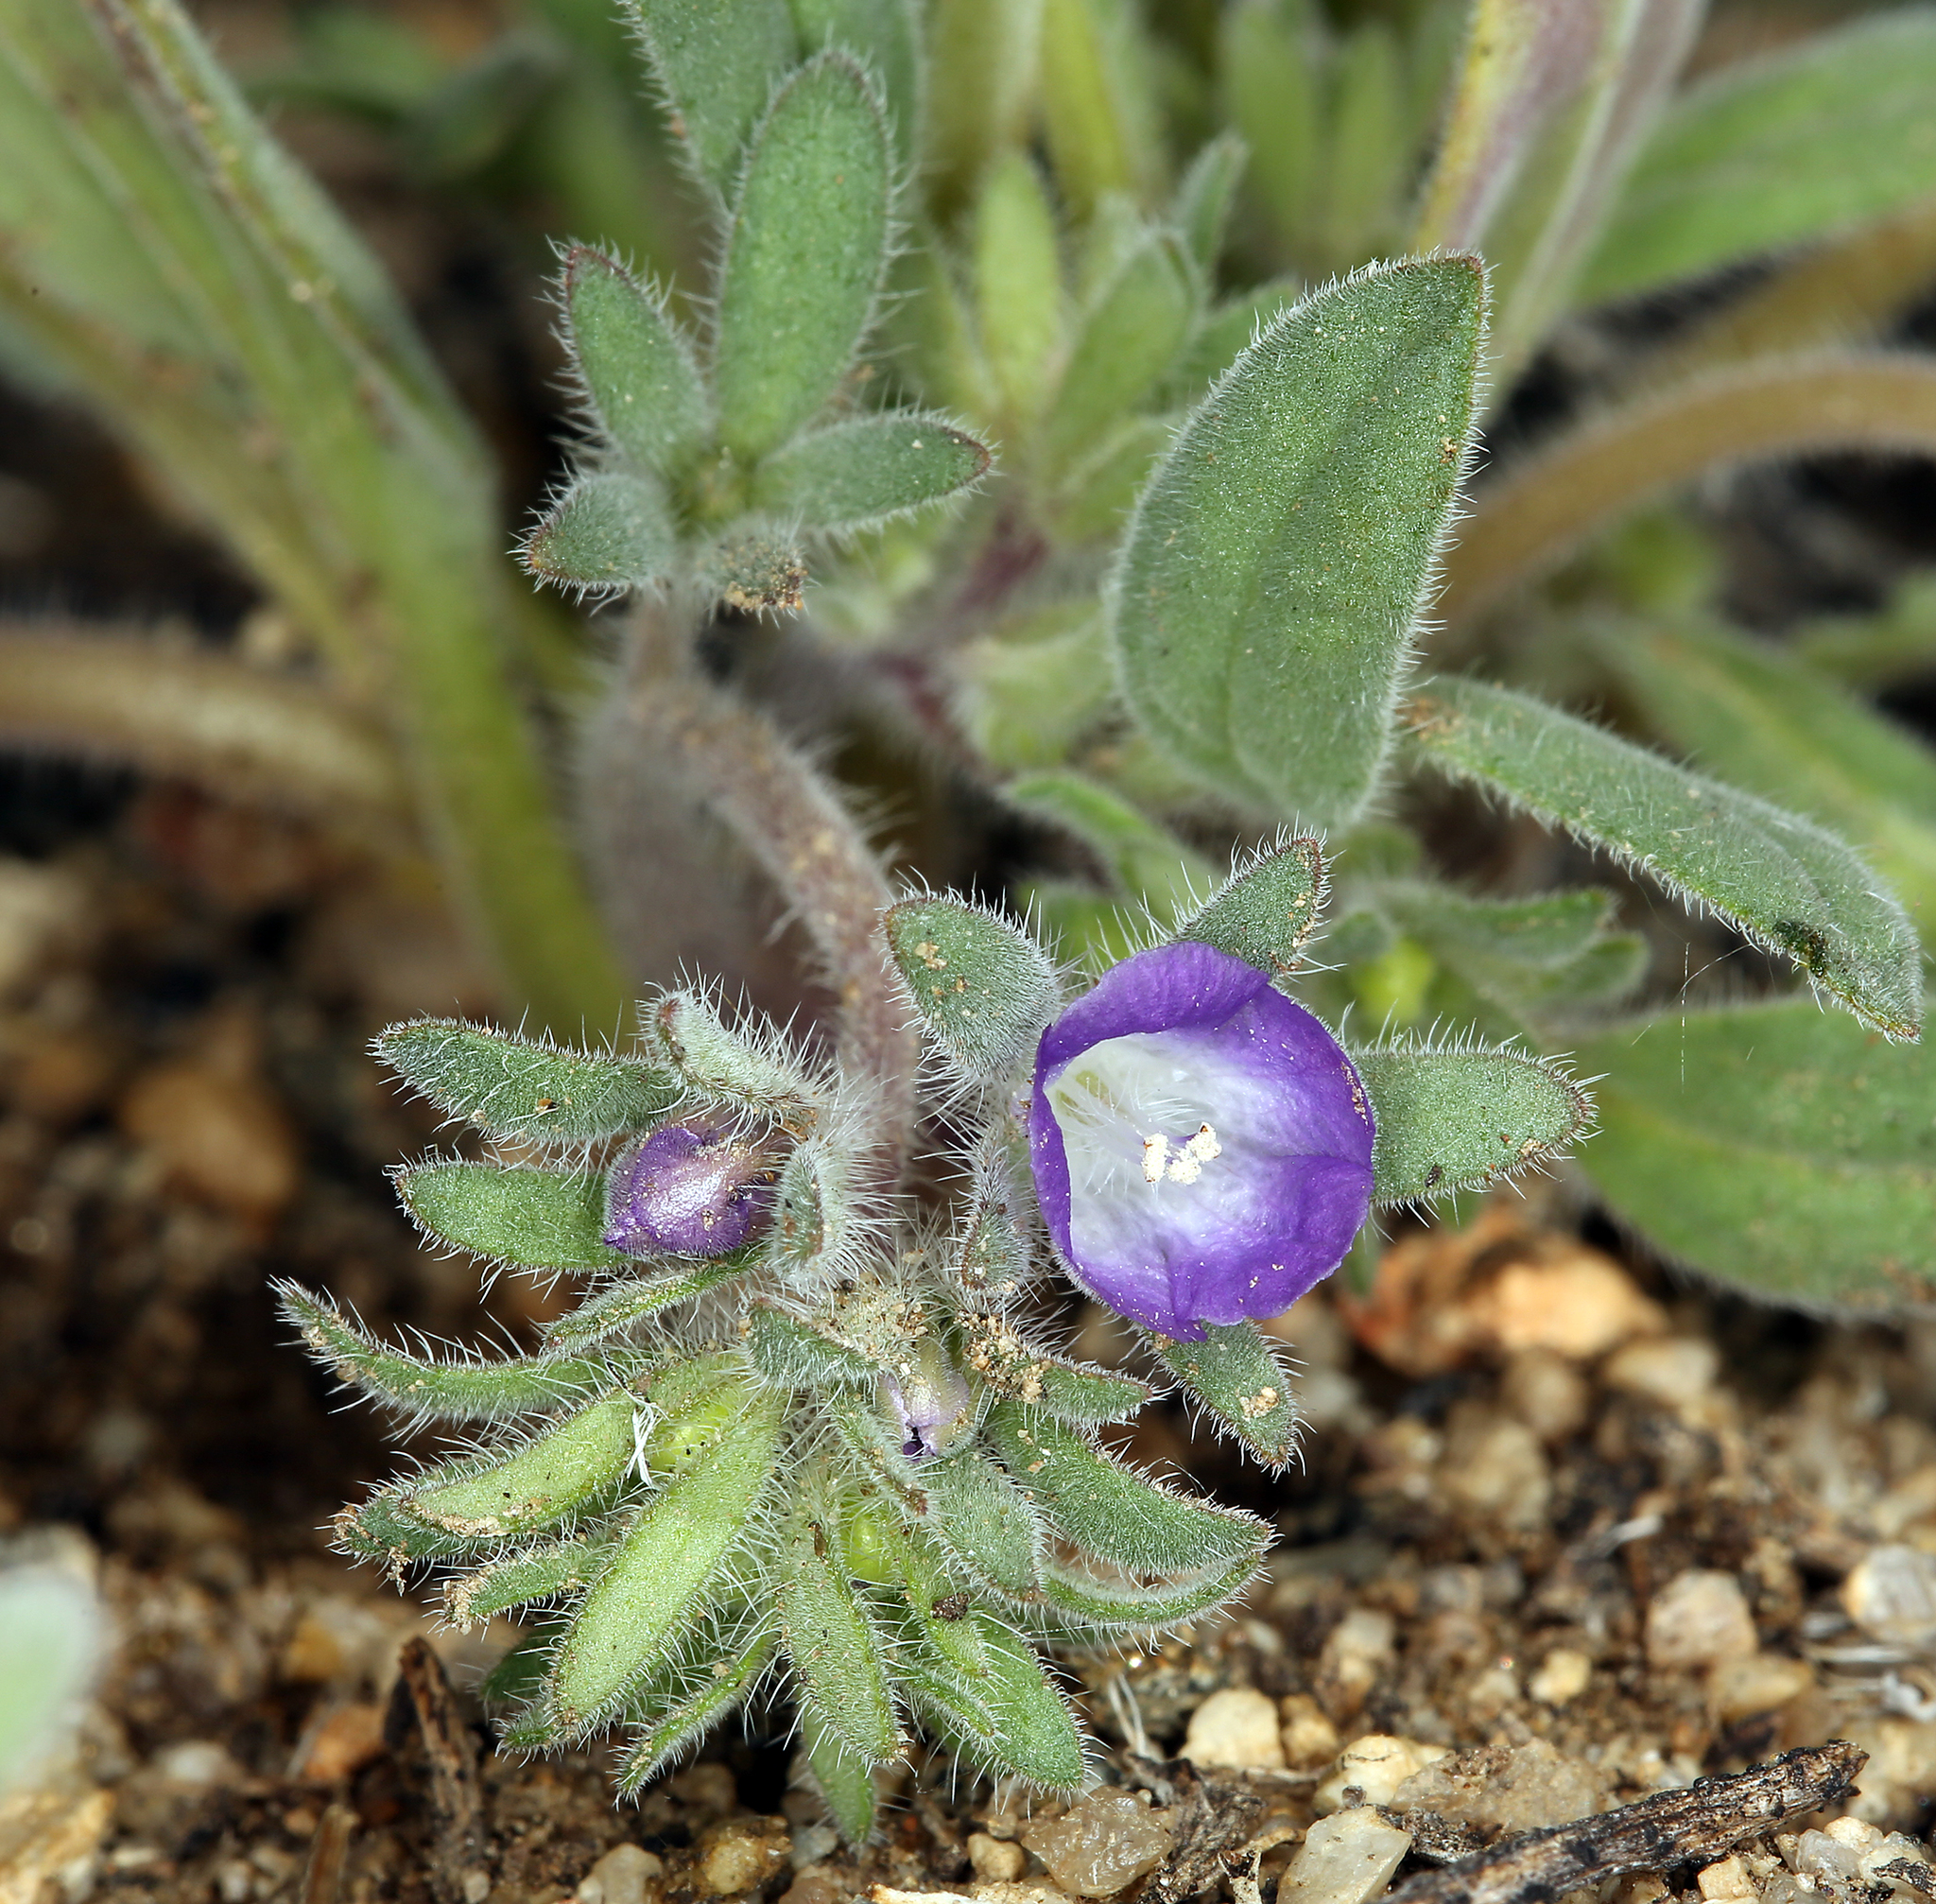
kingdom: Plantae
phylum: Tracheophyta
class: Magnoliopsida
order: Boraginales
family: Hydrophyllaceae
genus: Phacelia
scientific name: Phacelia curvipes
